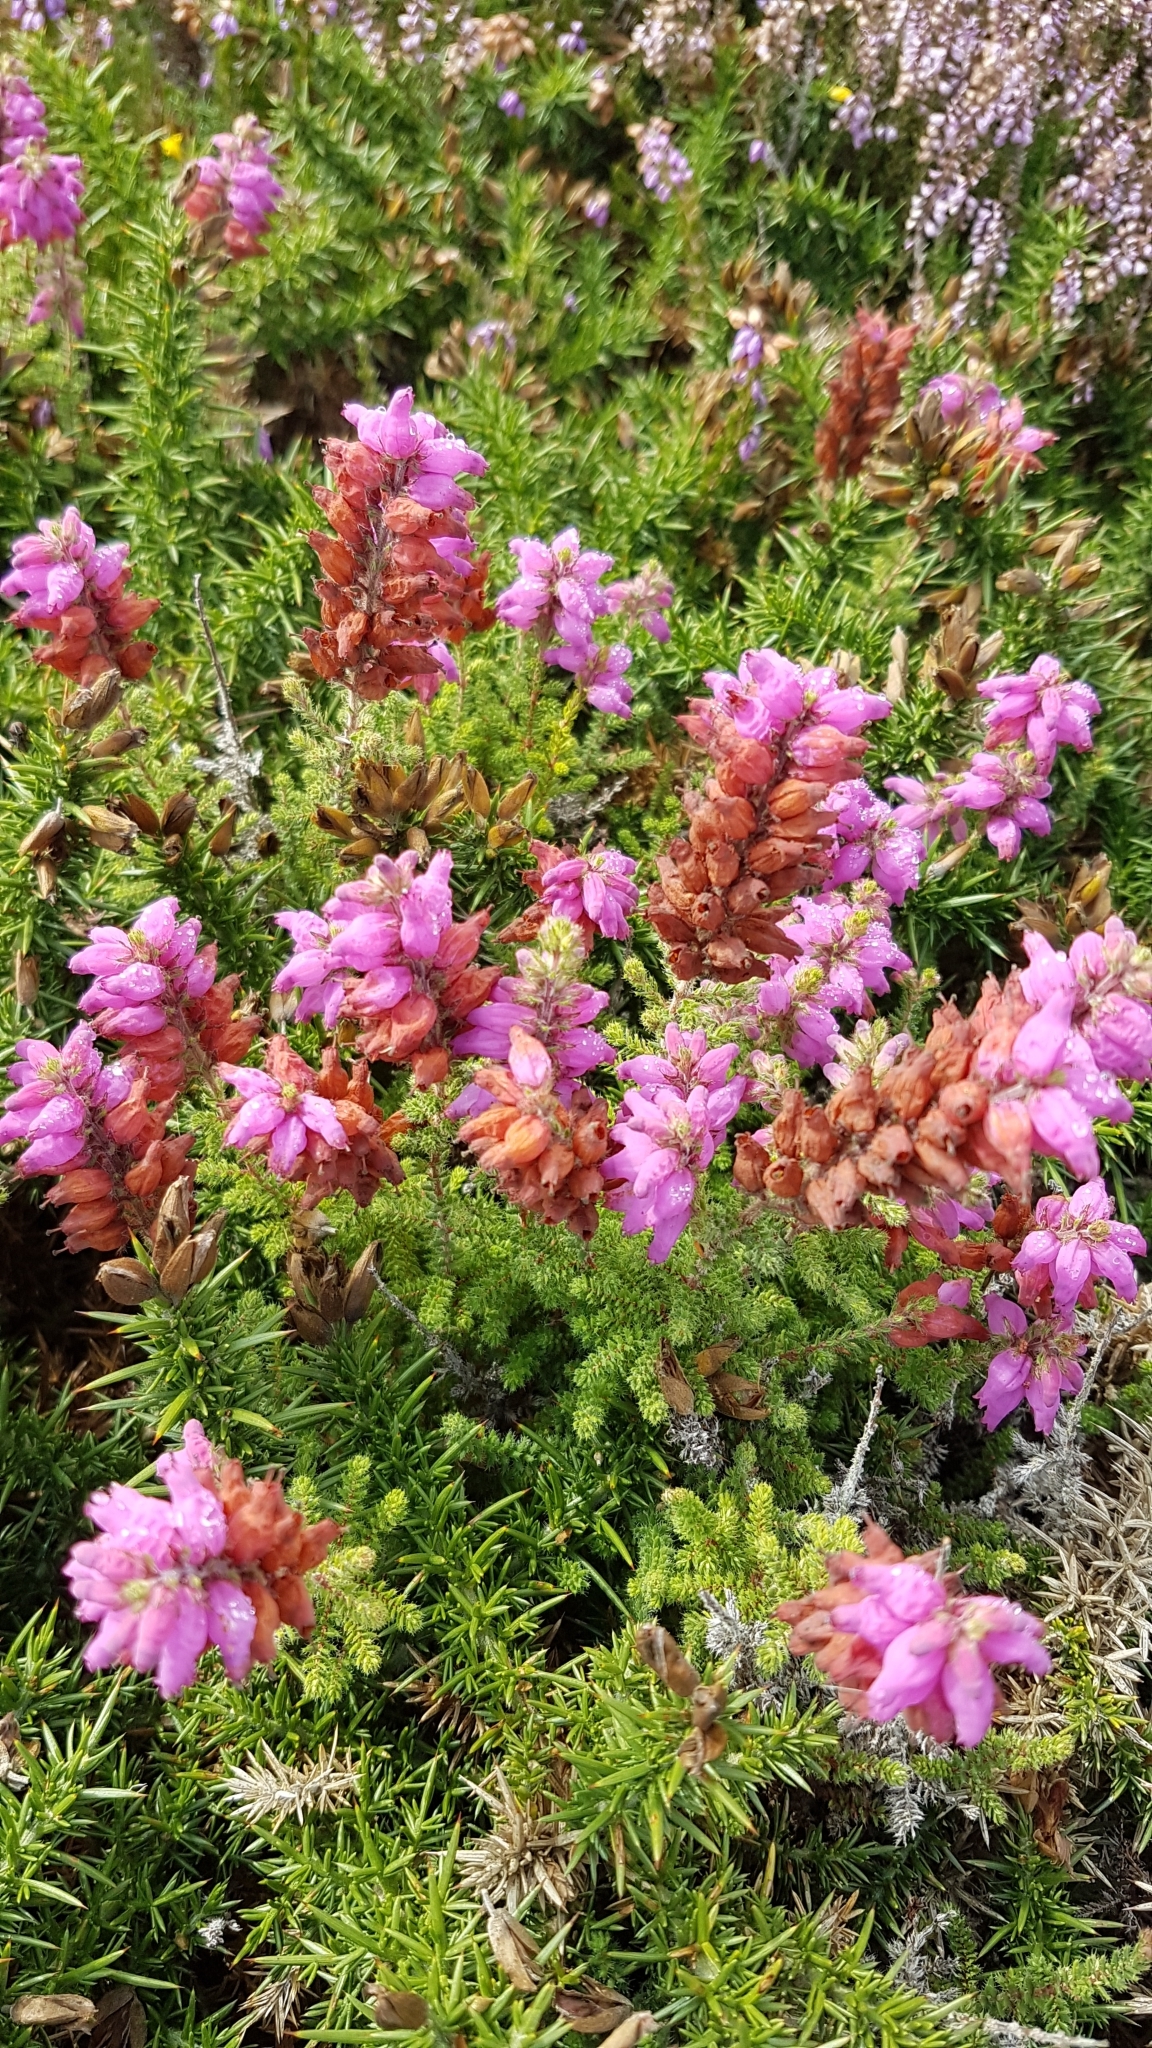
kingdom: Plantae
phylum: Tracheophyta
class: Magnoliopsida
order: Ericales
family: Ericaceae
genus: Erica
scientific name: Erica ciliaris
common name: Dorset heath
